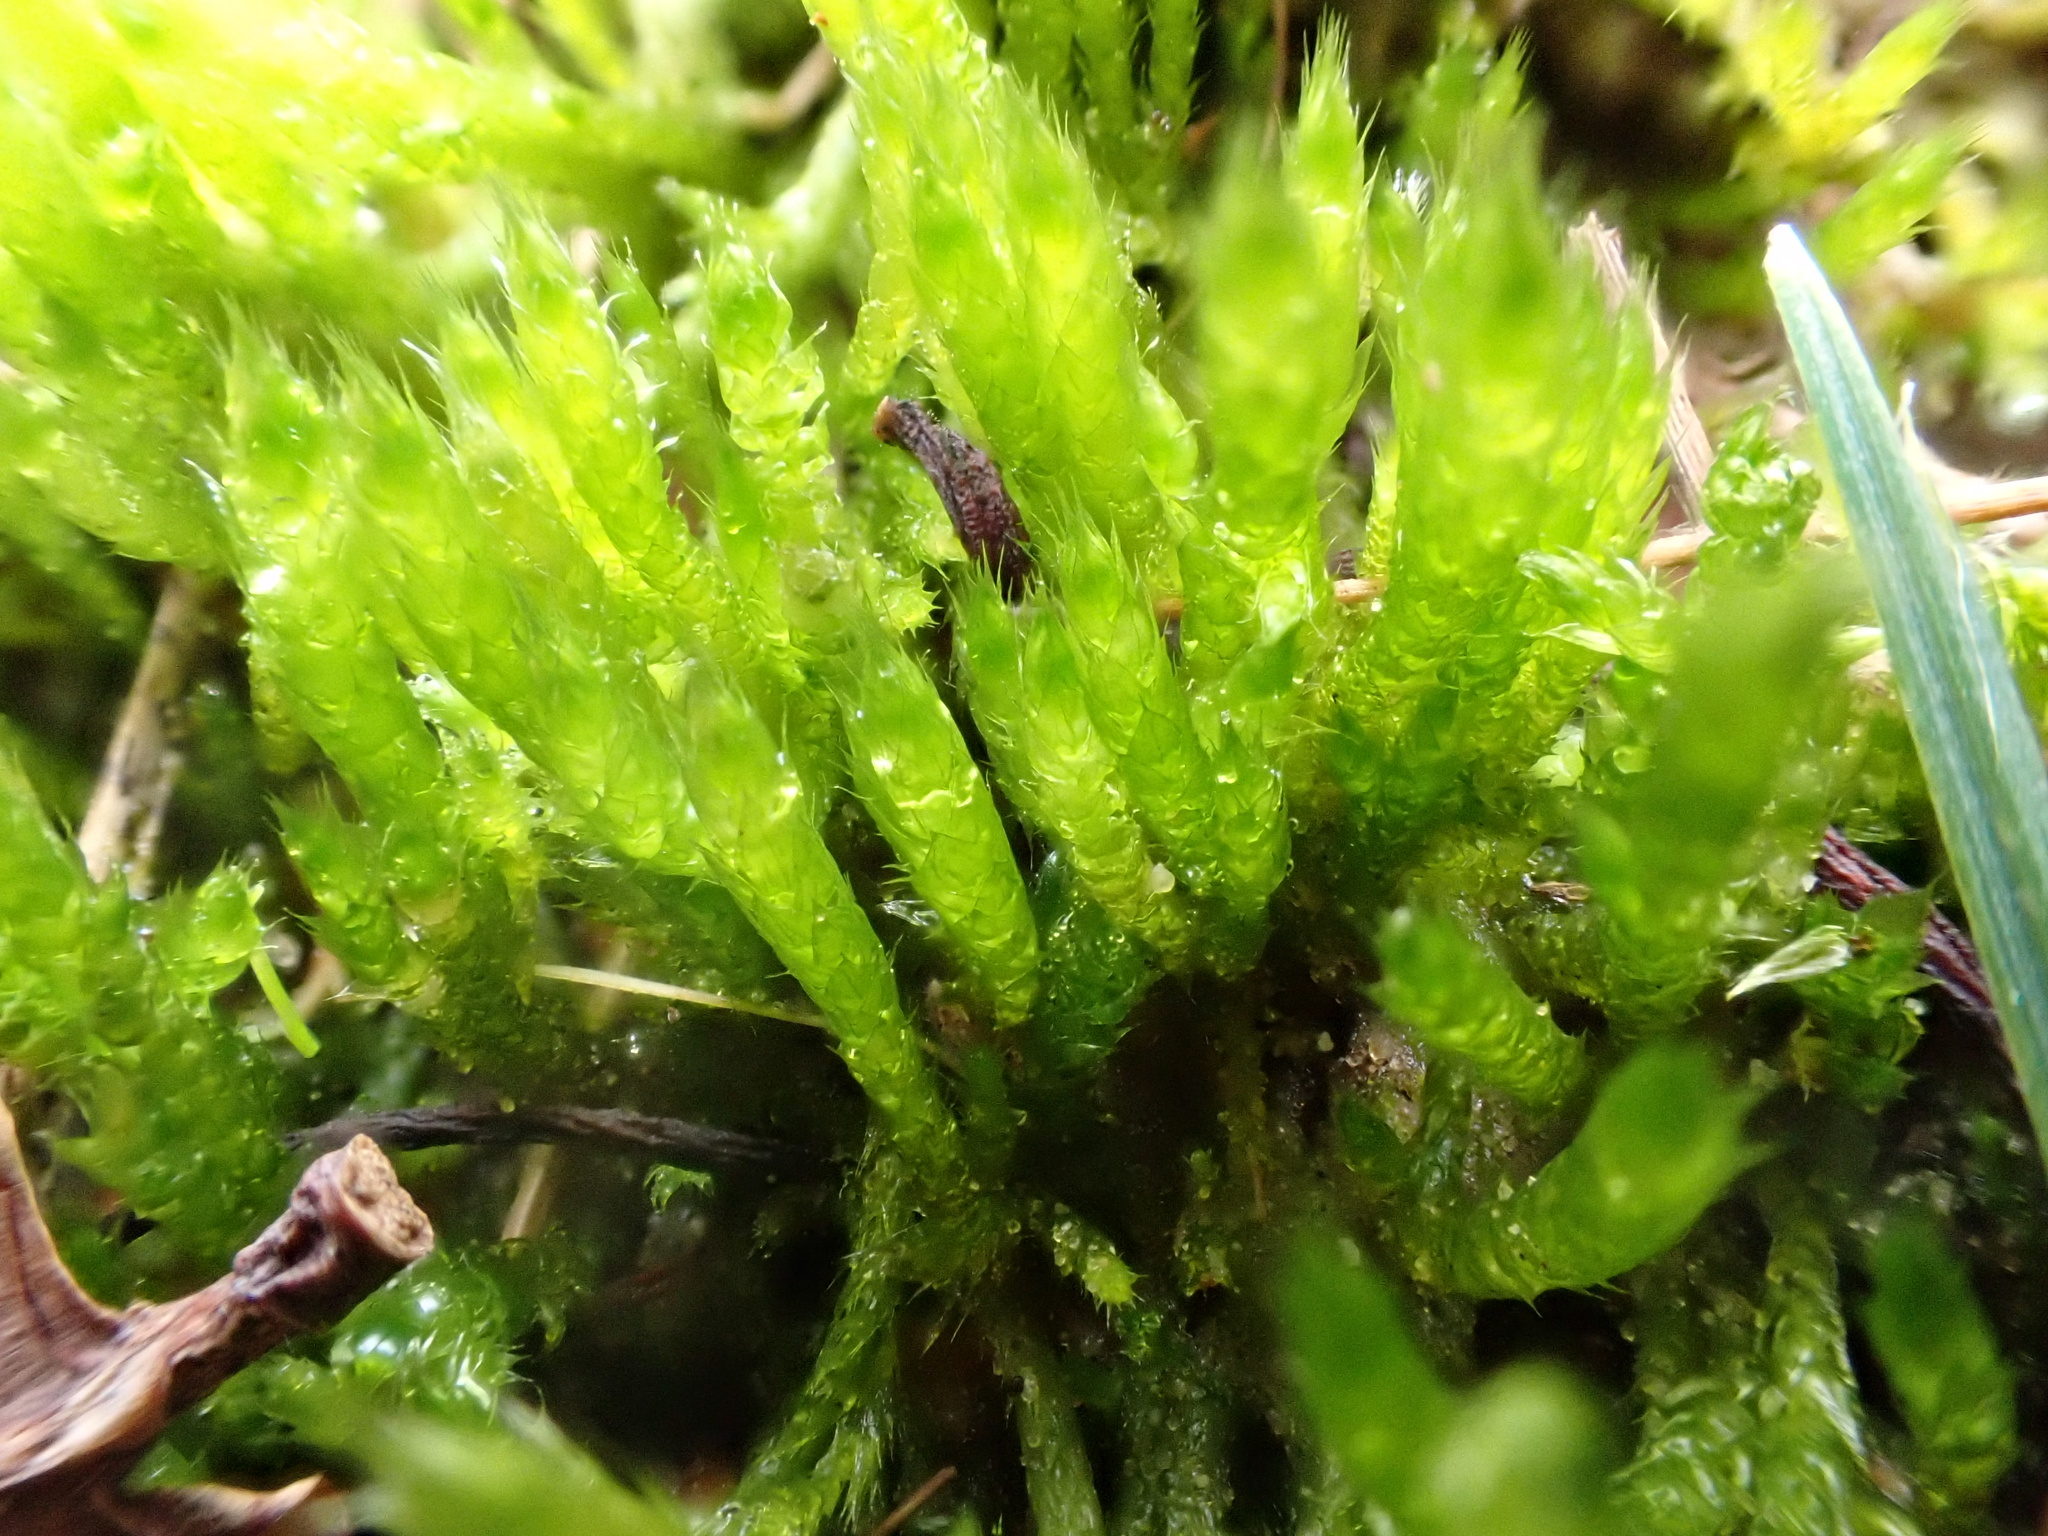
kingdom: Plantae
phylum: Bryophyta
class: Bryopsida
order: Hypnales
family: Brachytheciaceae
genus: Brachythecium
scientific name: Brachythecium albicans
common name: Whitish ragged moss
